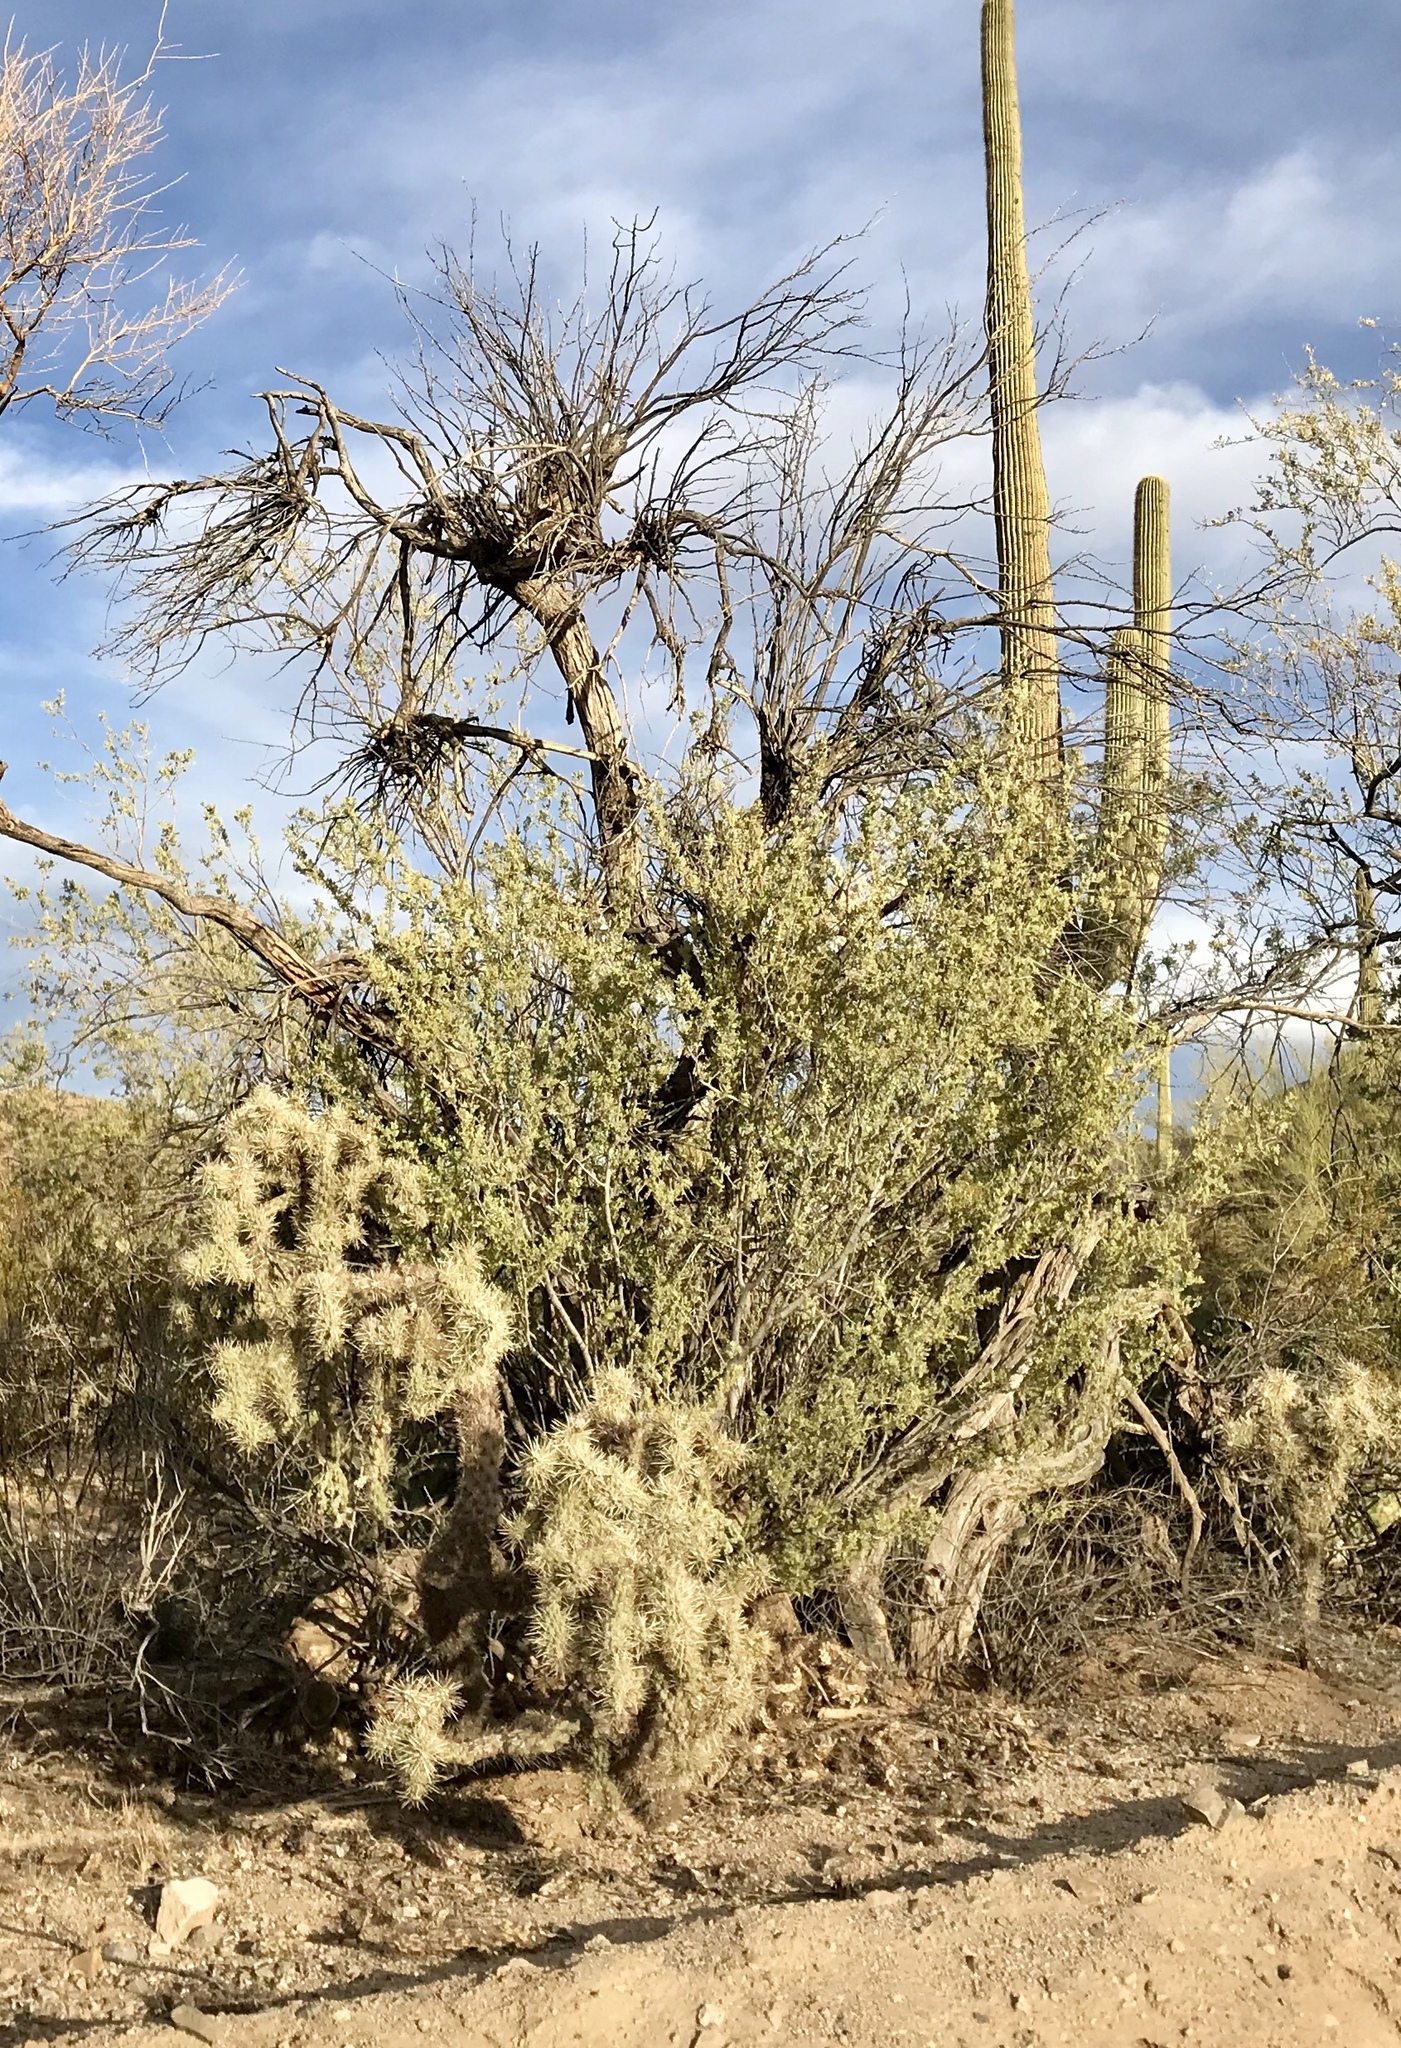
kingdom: Plantae
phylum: Tracheophyta
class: Magnoliopsida
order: Fabales
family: Fabaceae
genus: Olneya
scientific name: Olneya tesota
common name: Desert ironwood
